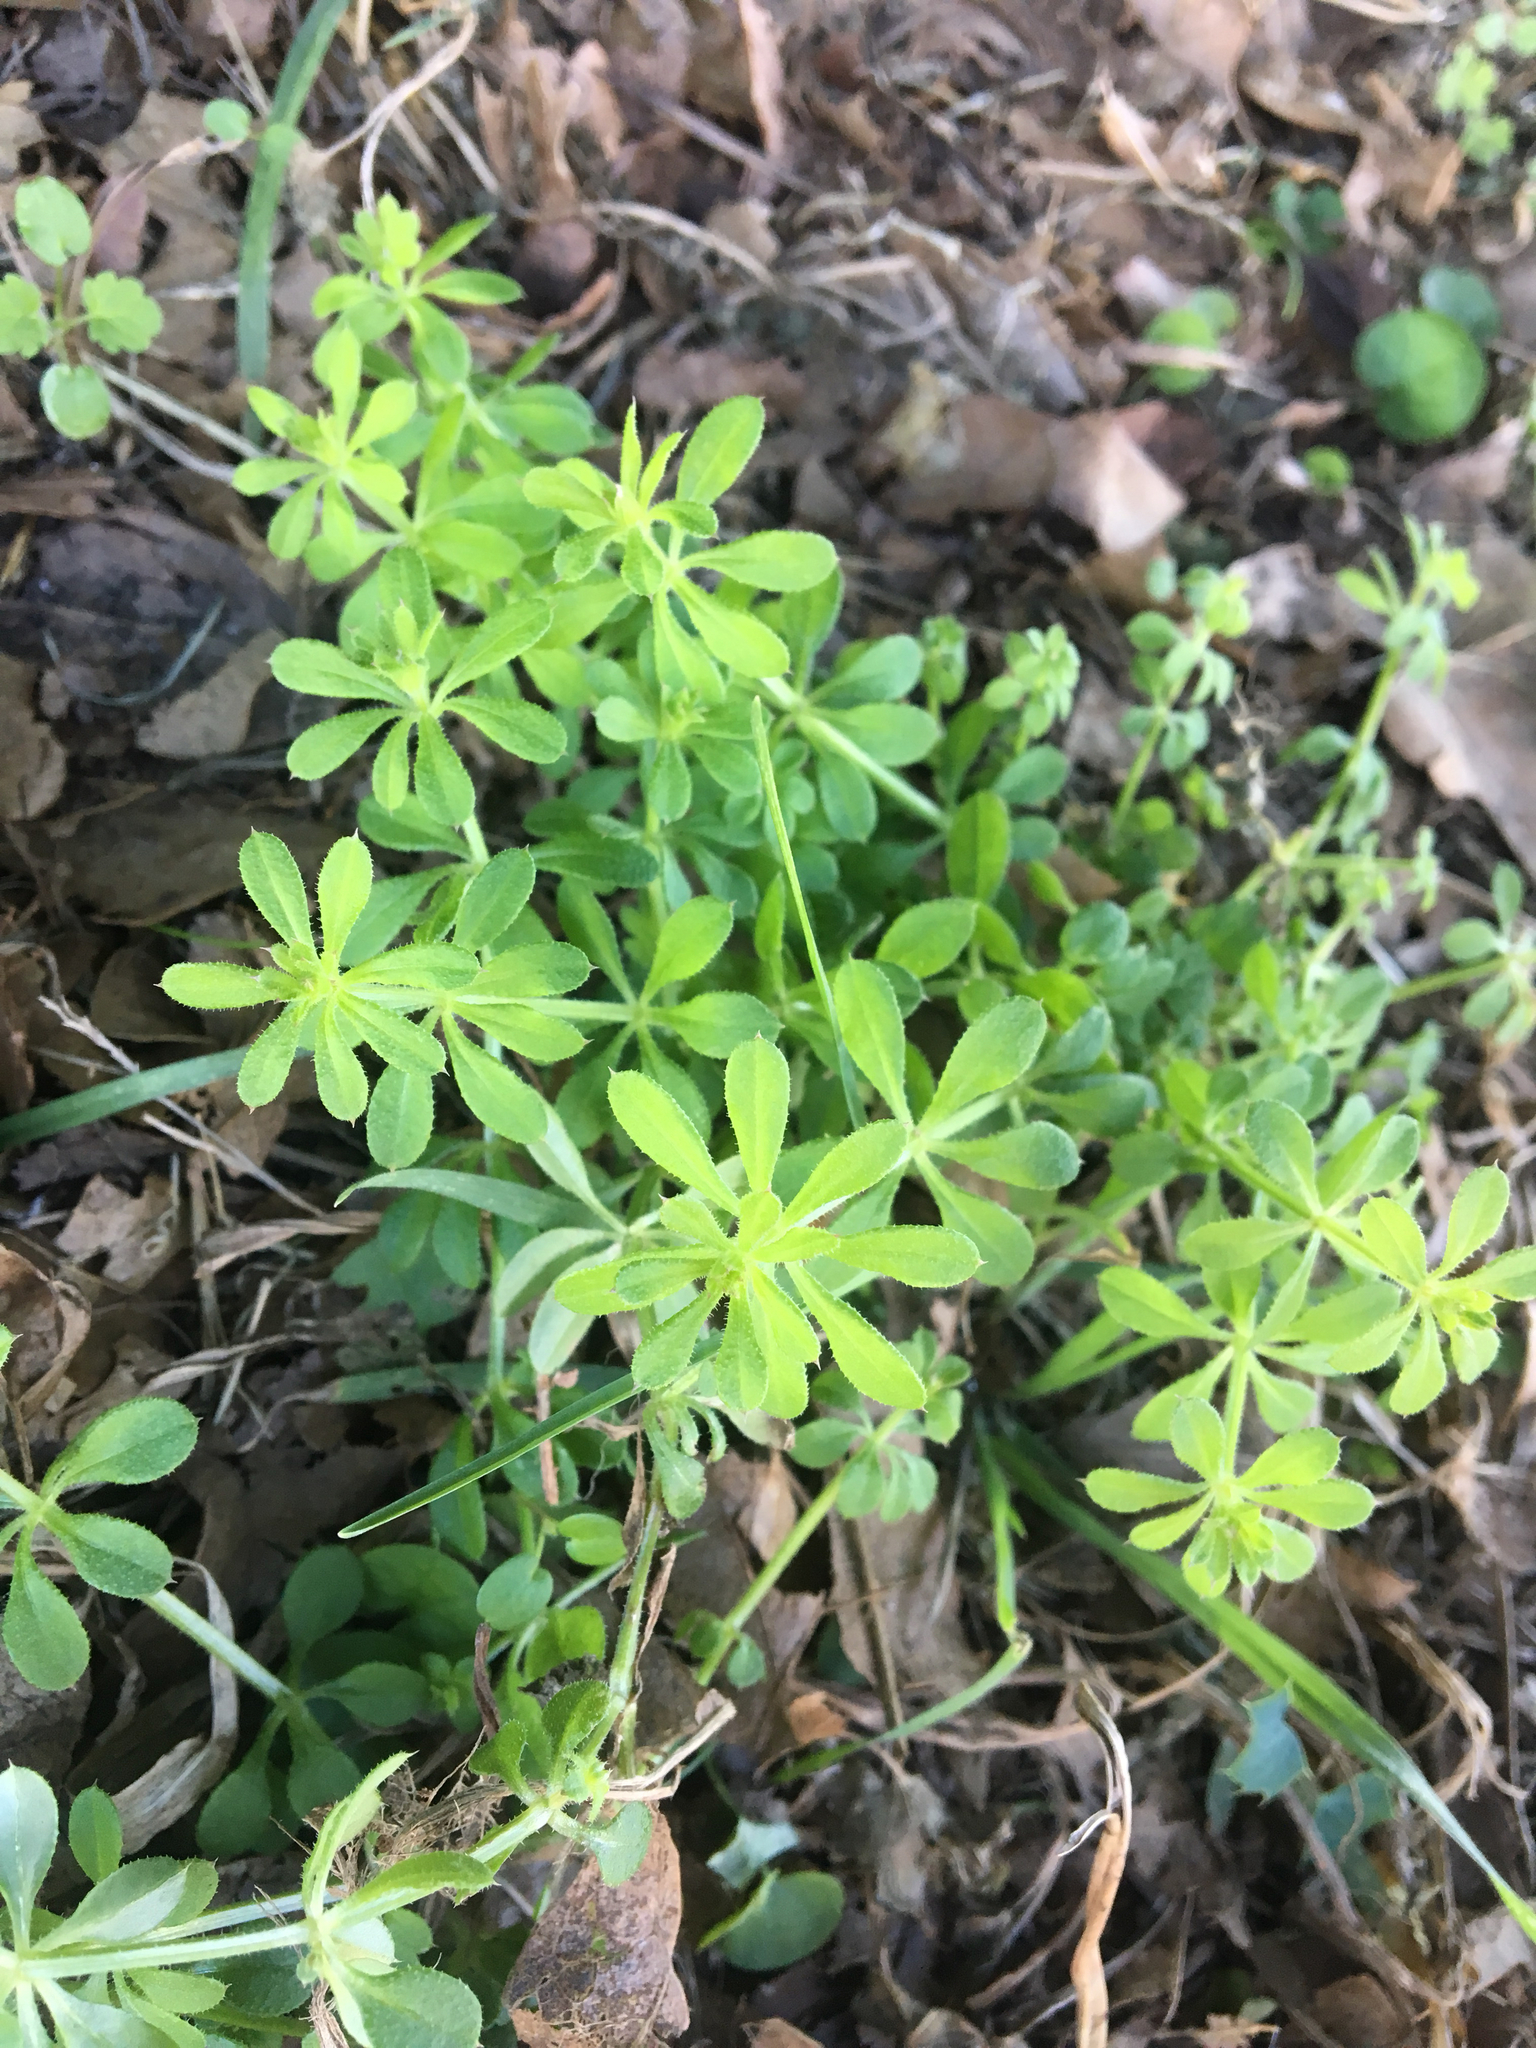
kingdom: Plantae
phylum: Tracheophyta
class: Magnoliopsida
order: Gentianales
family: Rubiaceae
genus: Galium
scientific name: Galium aparine
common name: Cleavers
